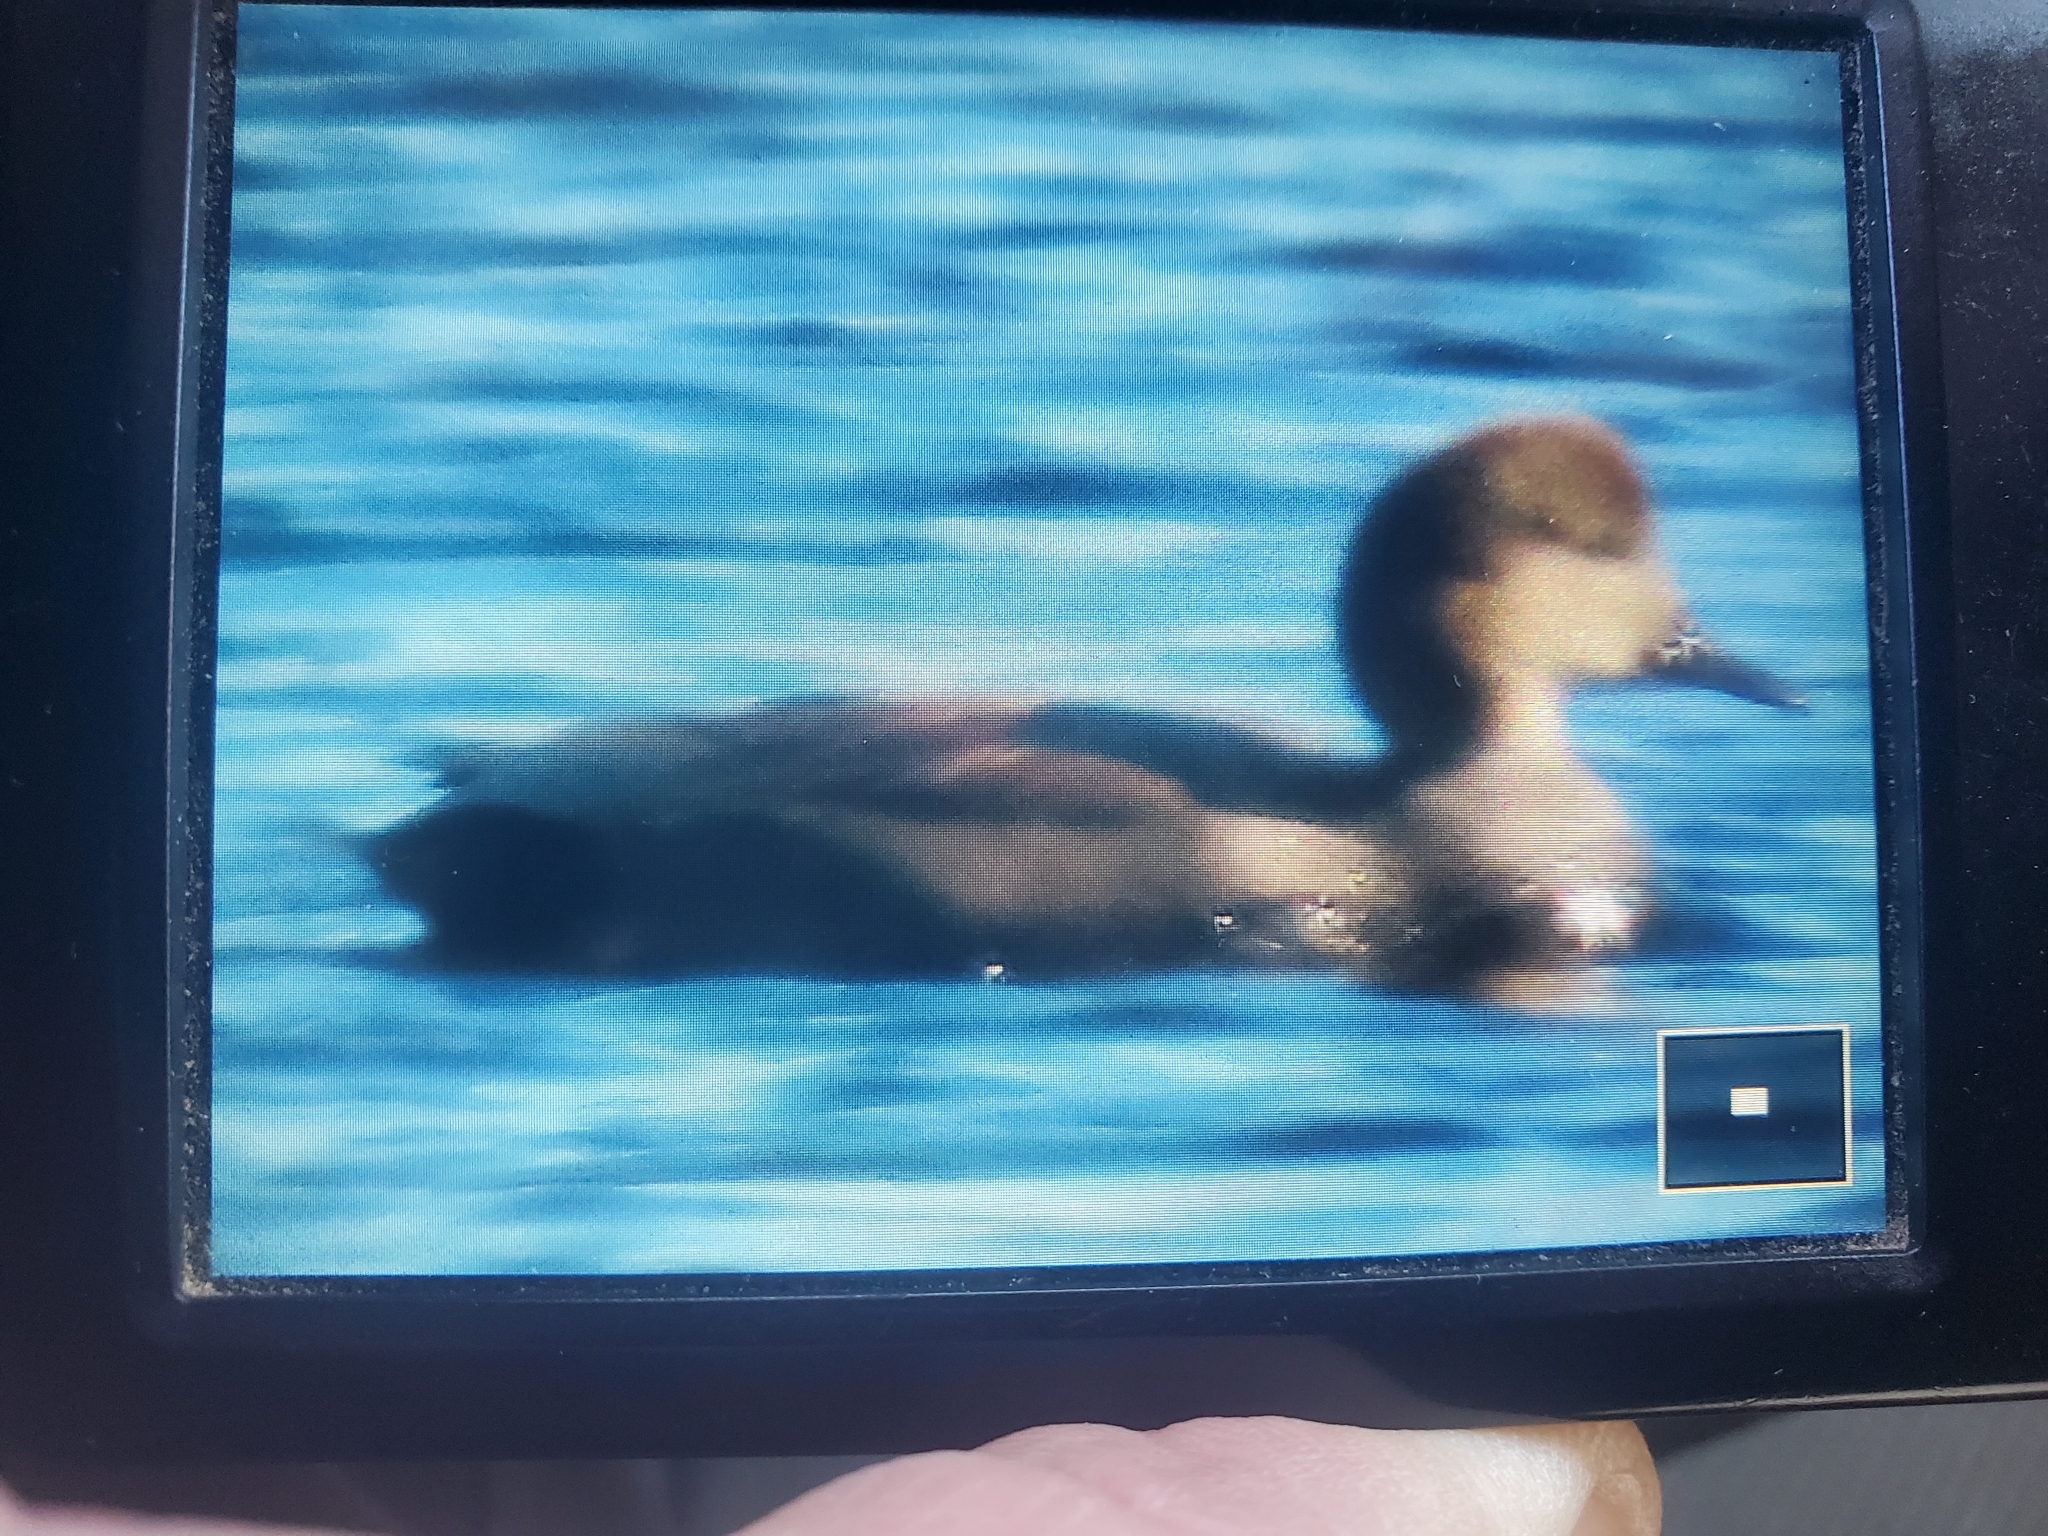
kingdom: Animalia
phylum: Chordata
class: Aves
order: Anseriformes
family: Anatidae
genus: Mareca
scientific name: Mareca strepera
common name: Gadwall
